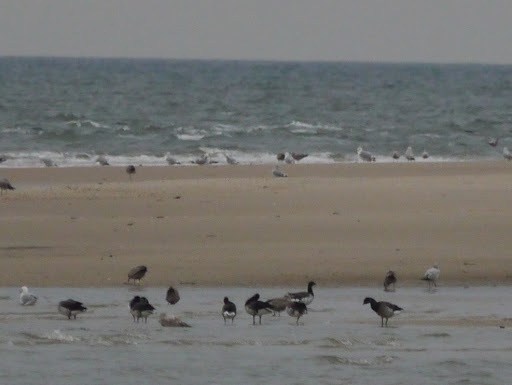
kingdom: Animalia
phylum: Chordata
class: Aves
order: Anseriformes
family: Anatidae
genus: Branta
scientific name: Branta bernicla
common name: Brant goose
